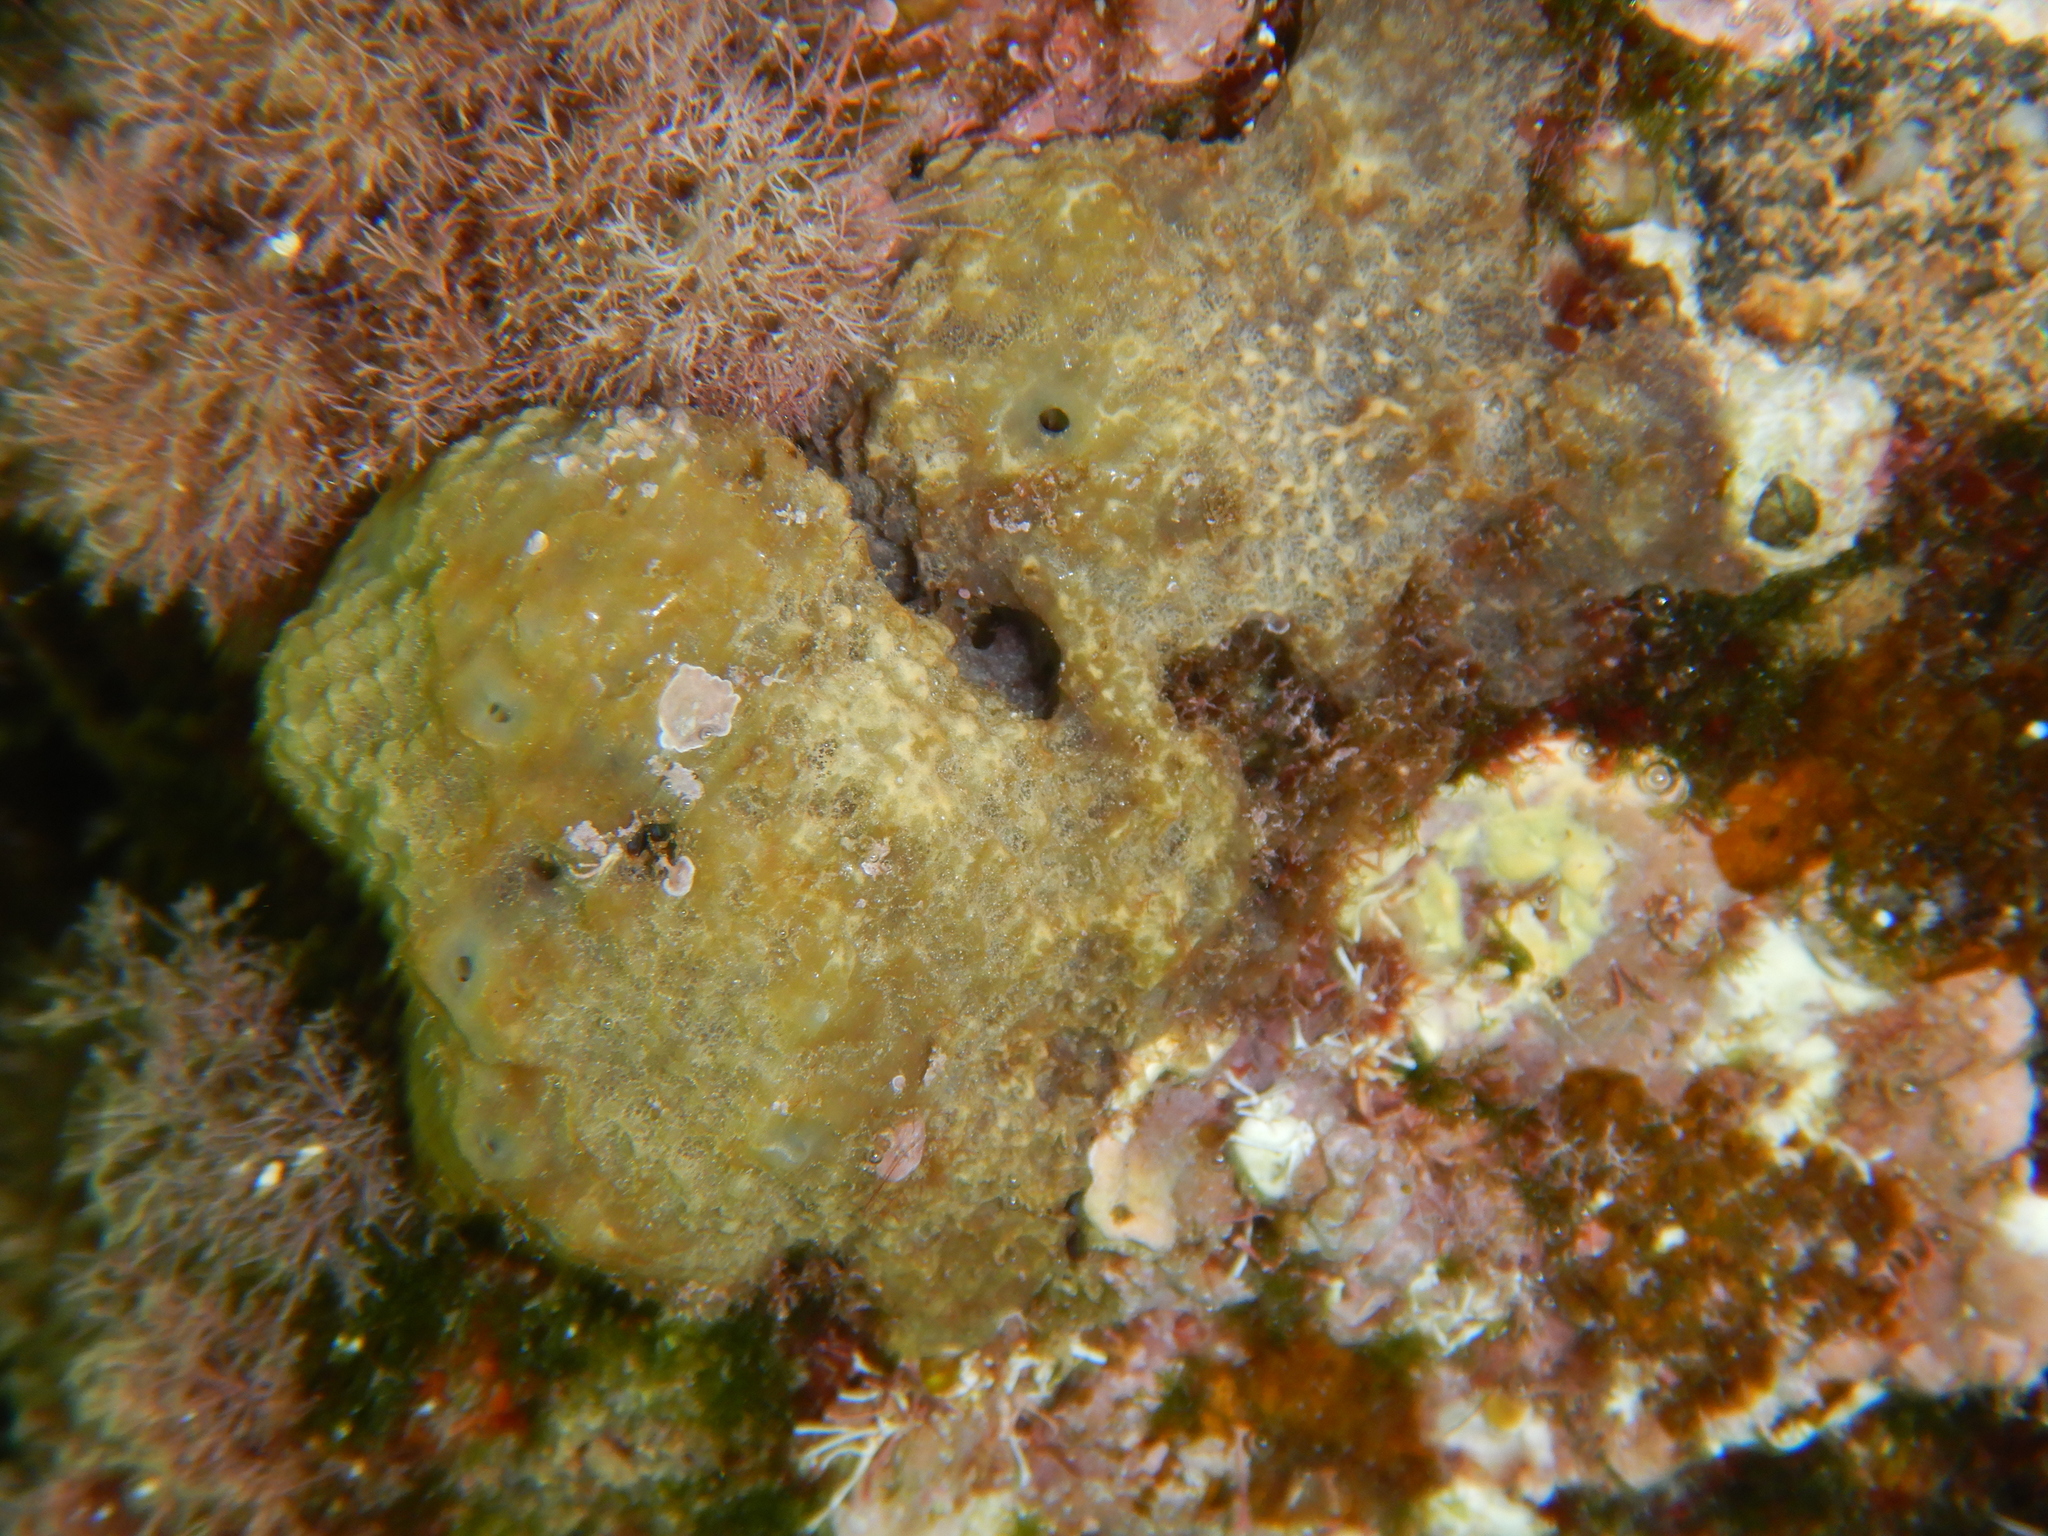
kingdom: Animalia
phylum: Porifera
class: Demospongiae
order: Dictyoceratida
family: Irciniidae
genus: Ircinia
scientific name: Ircinia variabilis
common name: Variable loggerhead sponge
